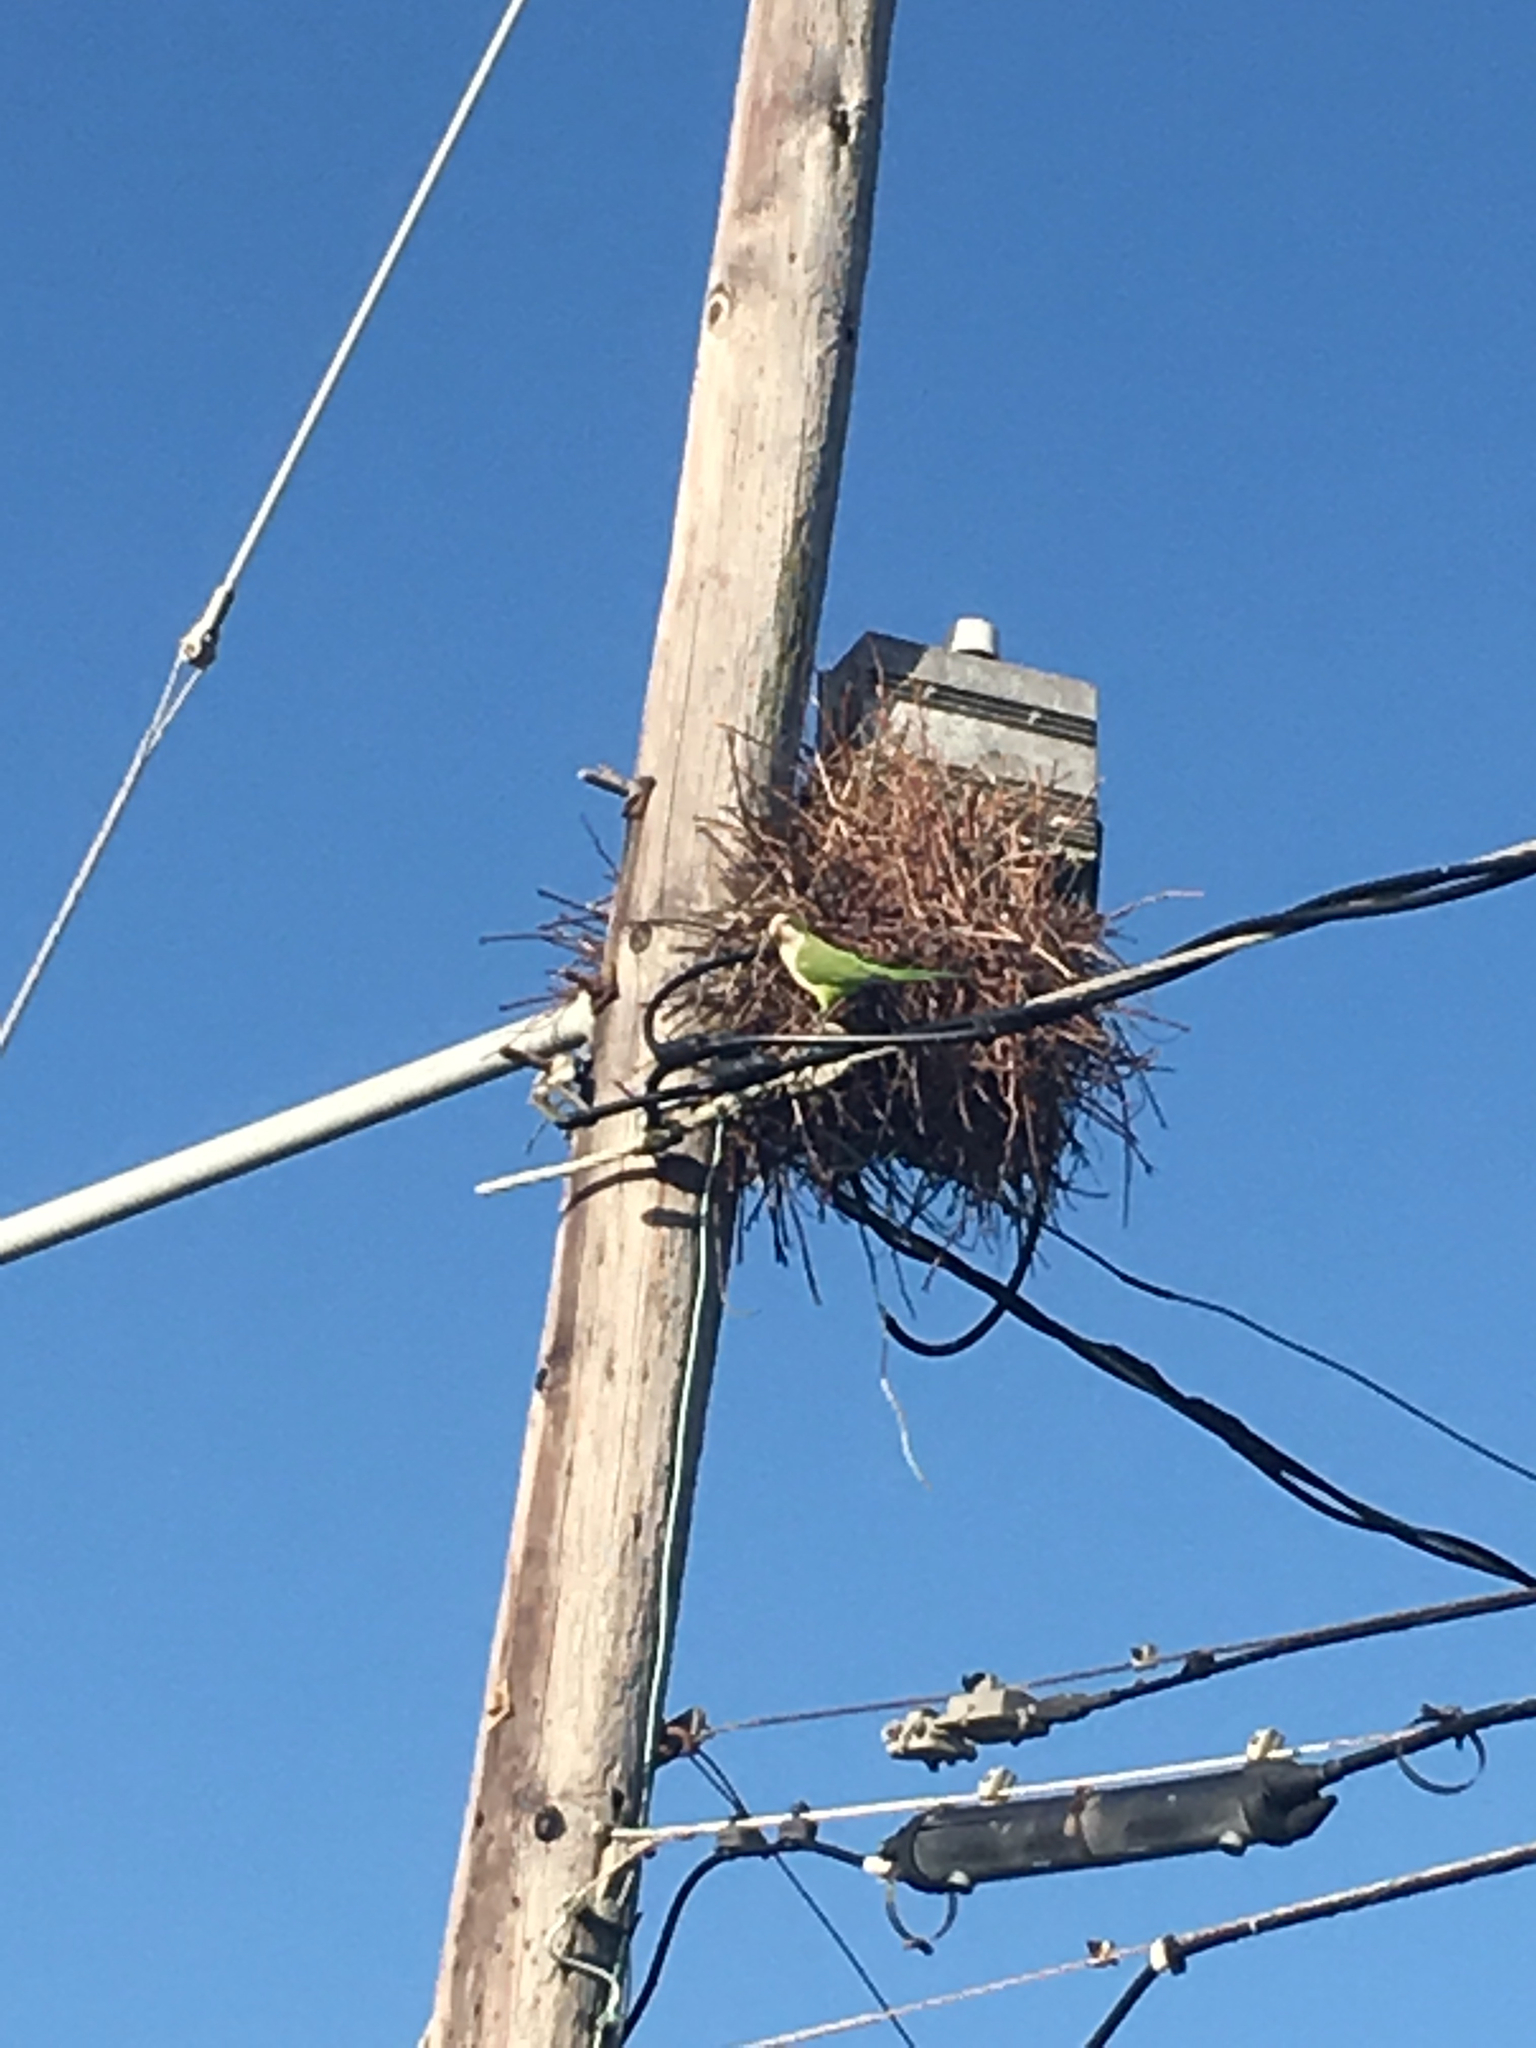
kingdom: Animalia
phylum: Chordata
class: Aves
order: Psittaciformes
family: Psittacidae
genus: Myiopsitta
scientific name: Myiopsitta monachus
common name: Monk parakeet
